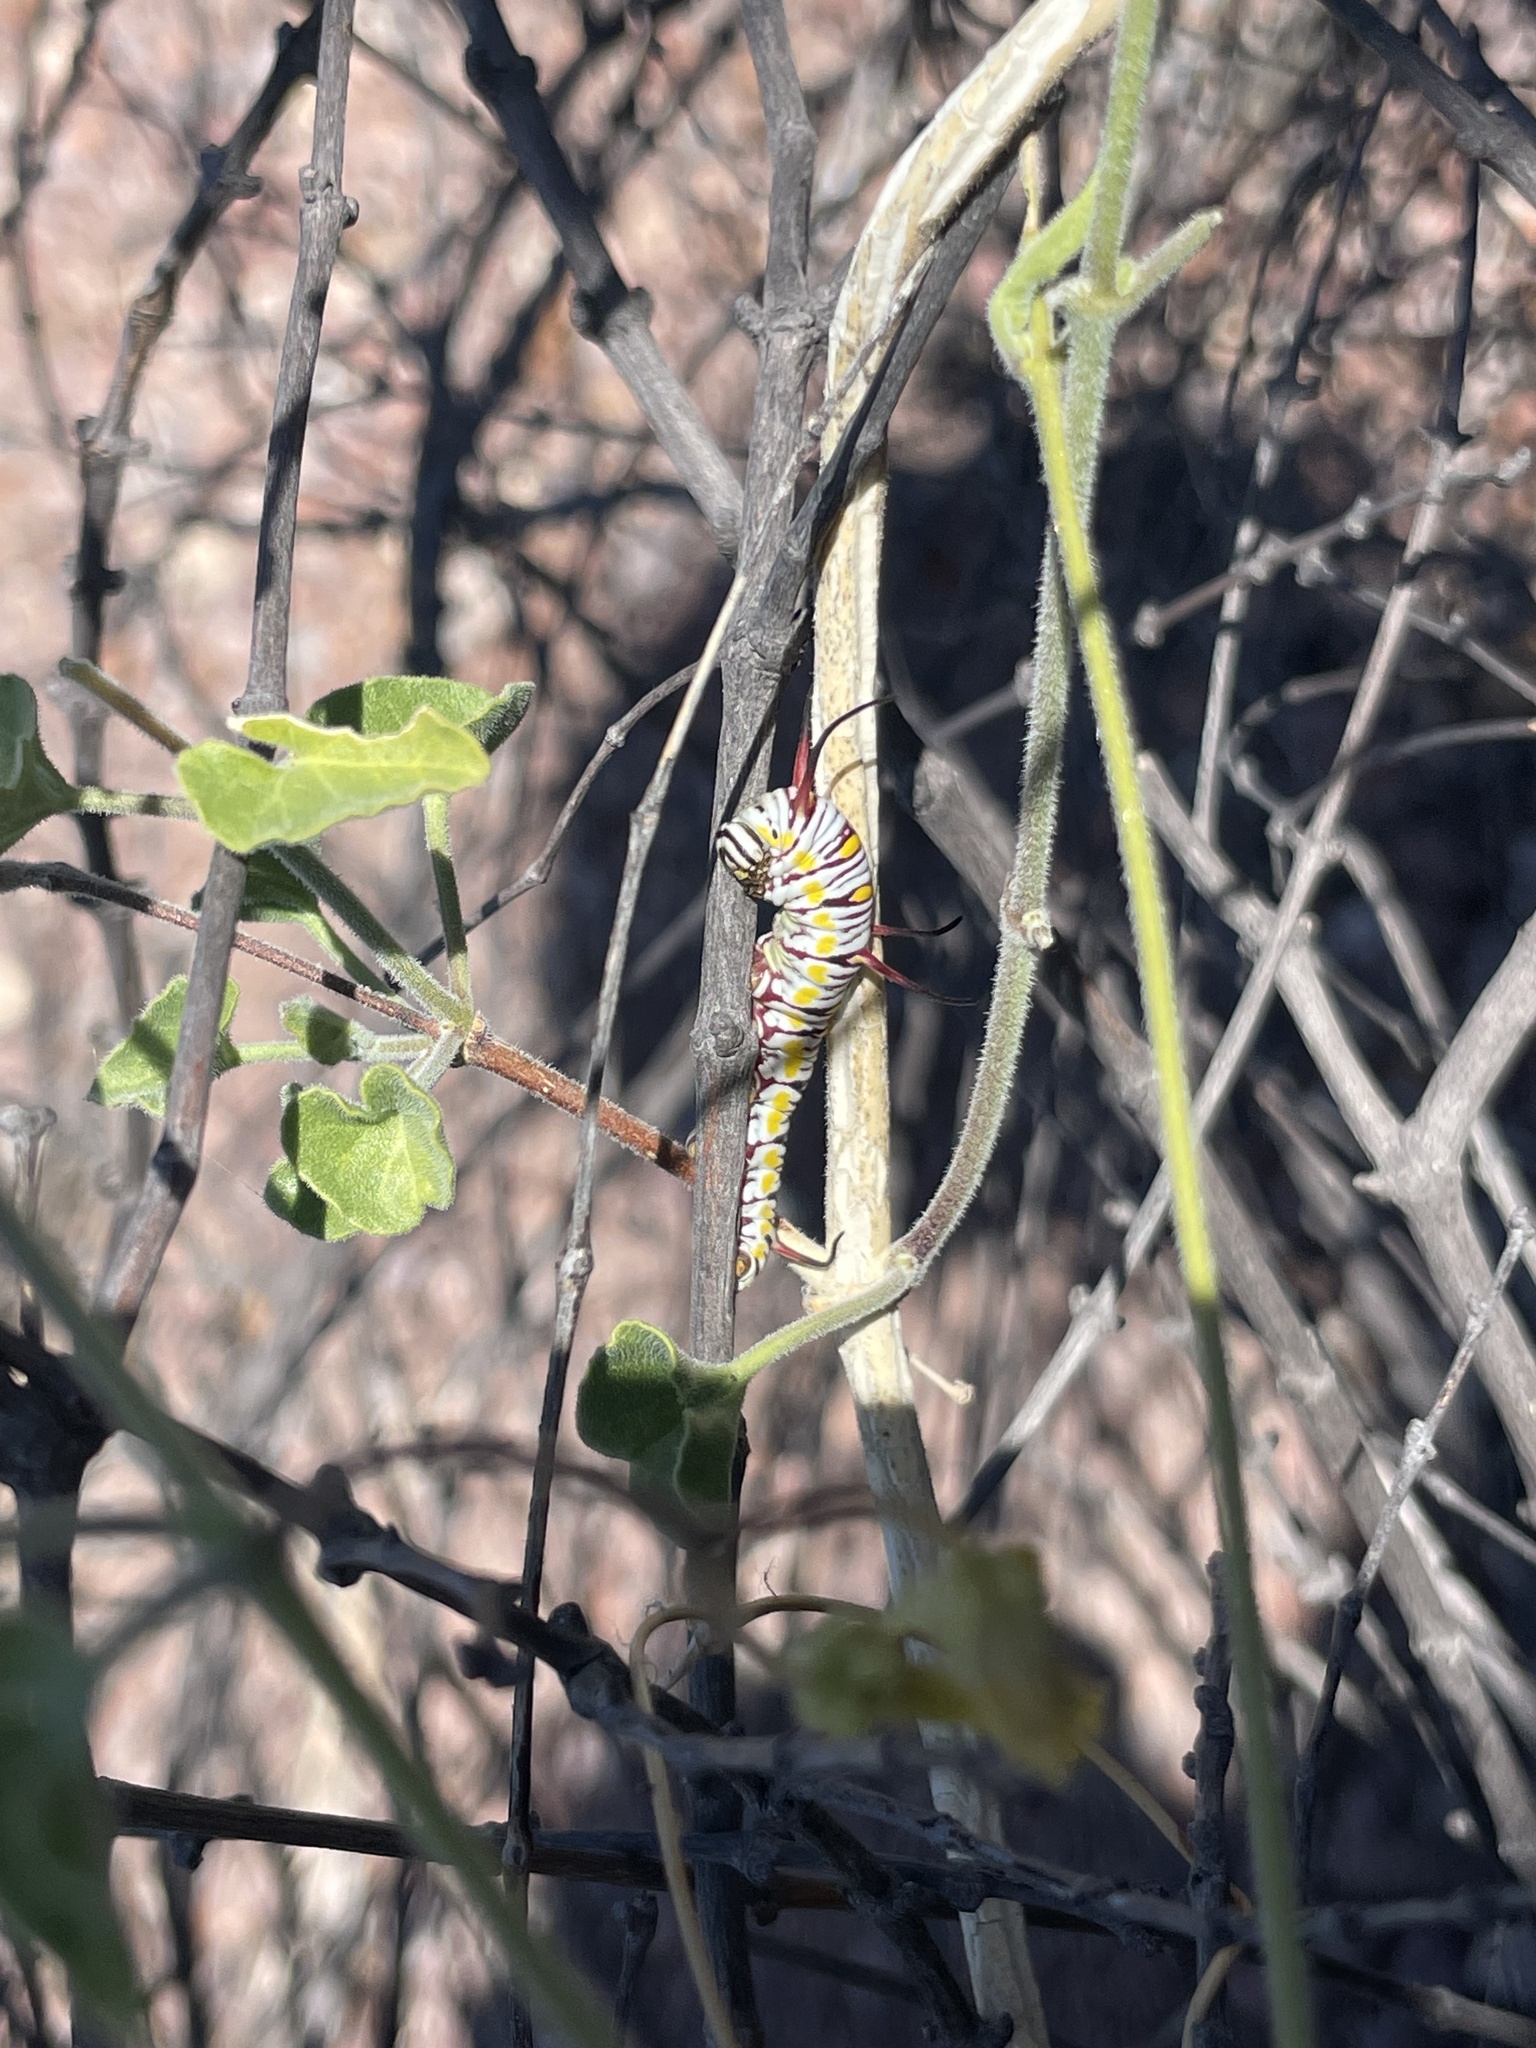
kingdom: Animalia
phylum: Arthropoda
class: Insecta
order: Lepidoptera
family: Nymphalidae
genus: Danaus
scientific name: Danaus gilippus
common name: Queen
